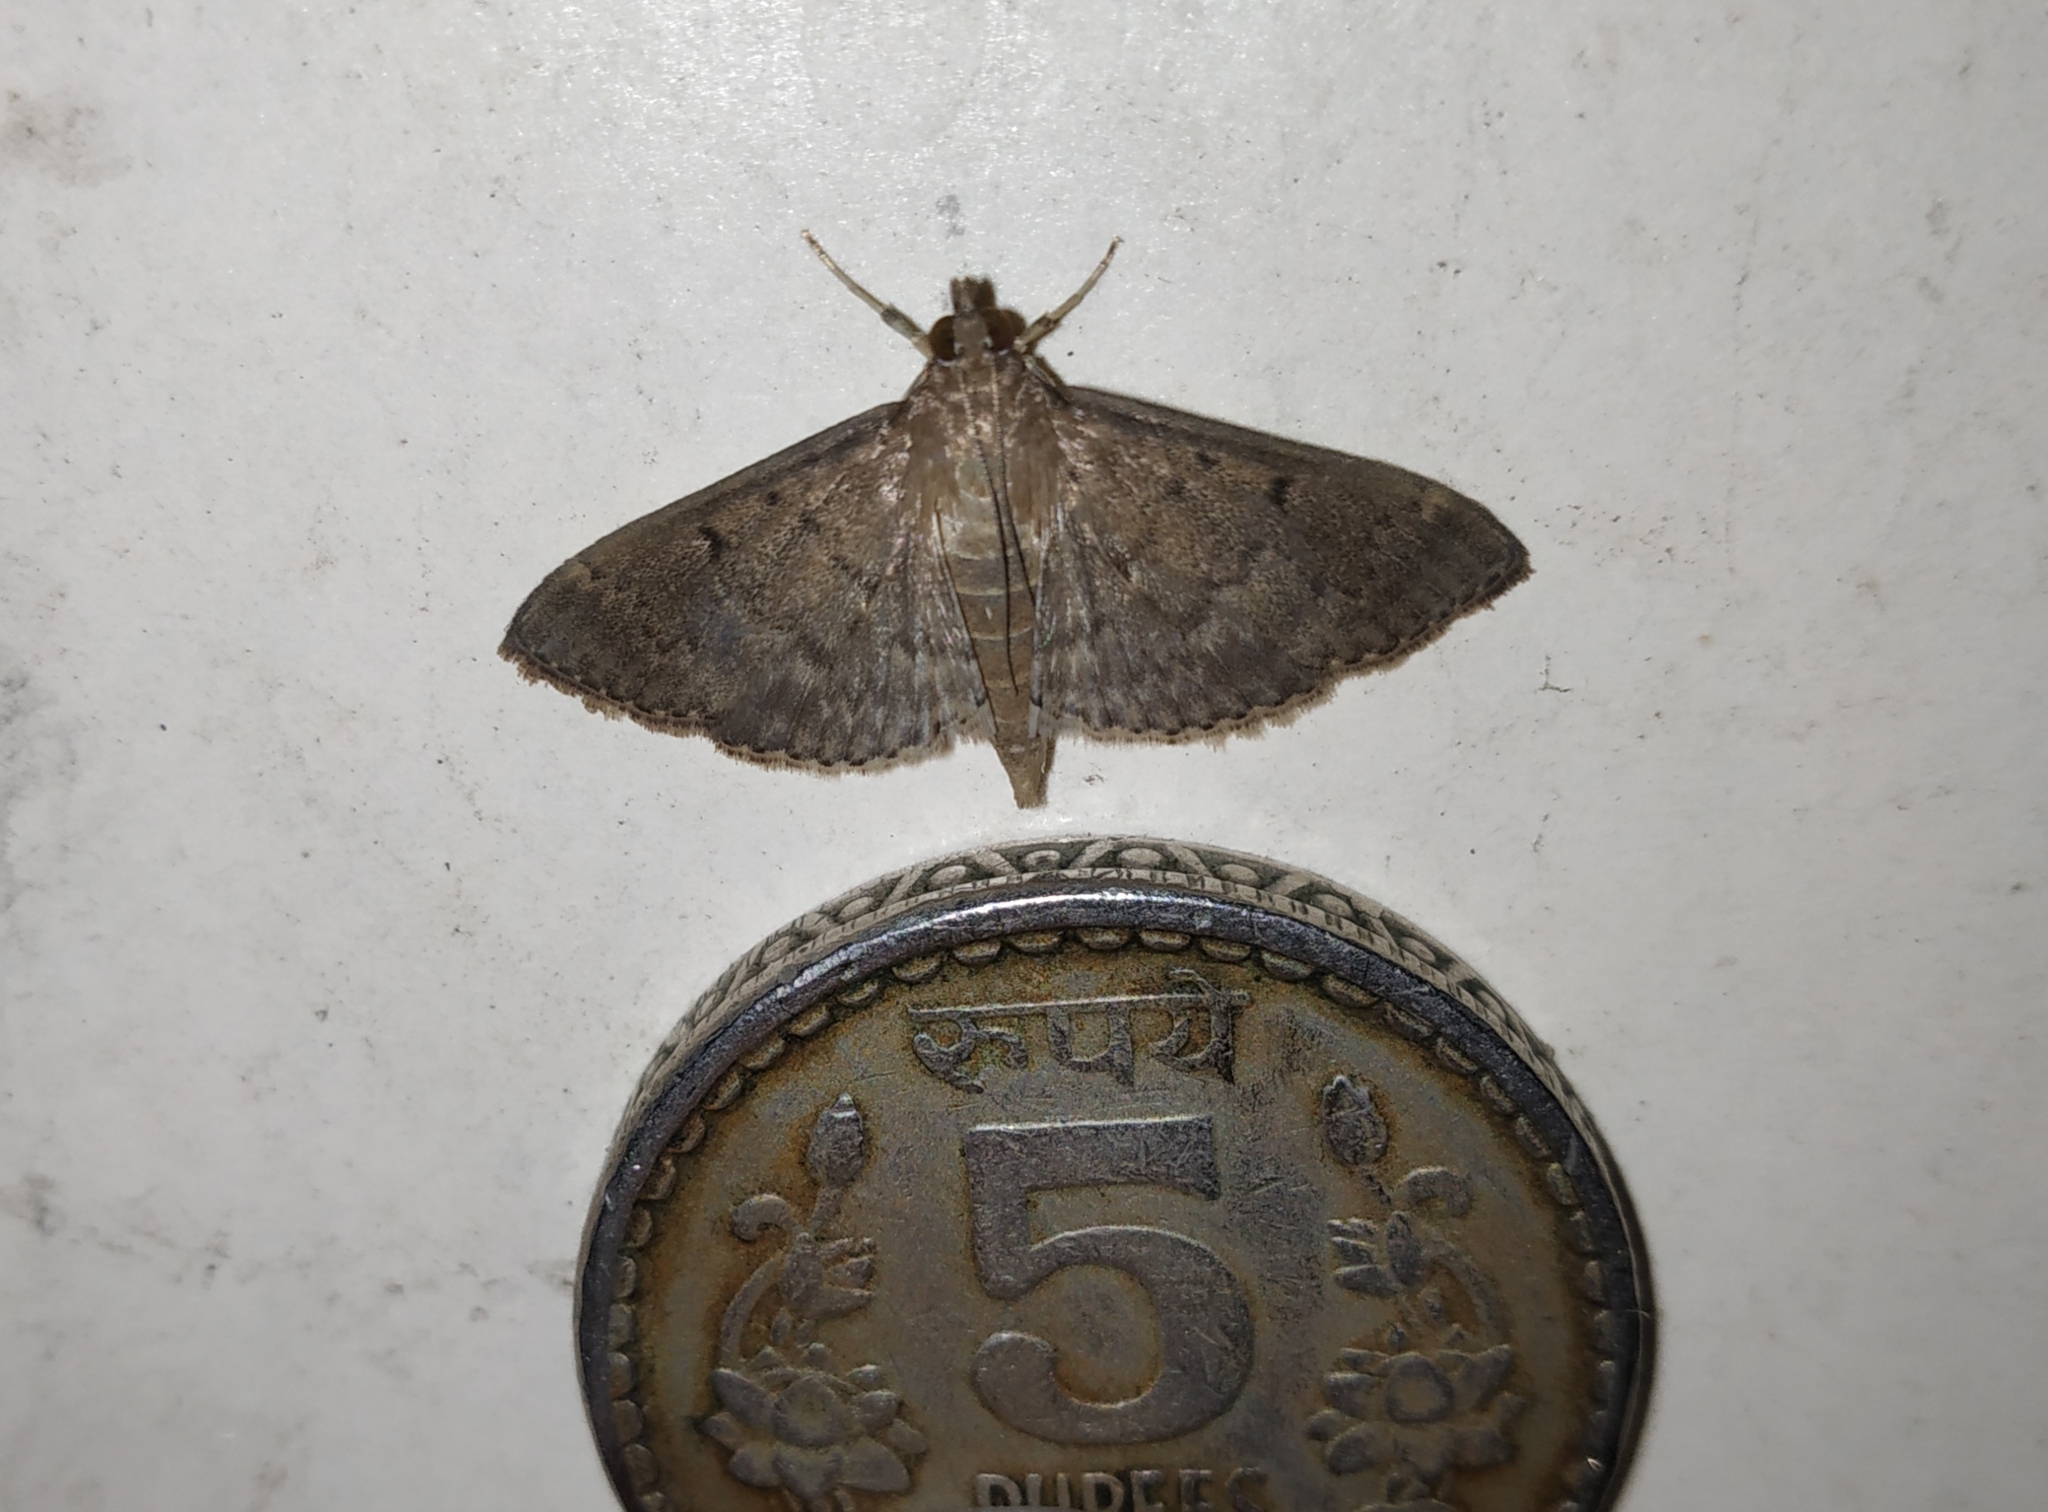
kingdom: Animalia
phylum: Arthropoda
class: Insecta
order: Lepidoptera
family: Crambidae
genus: Herpetogramma
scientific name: Herpetogramma phaeopteralis
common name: Dusky herpetogramma moth
